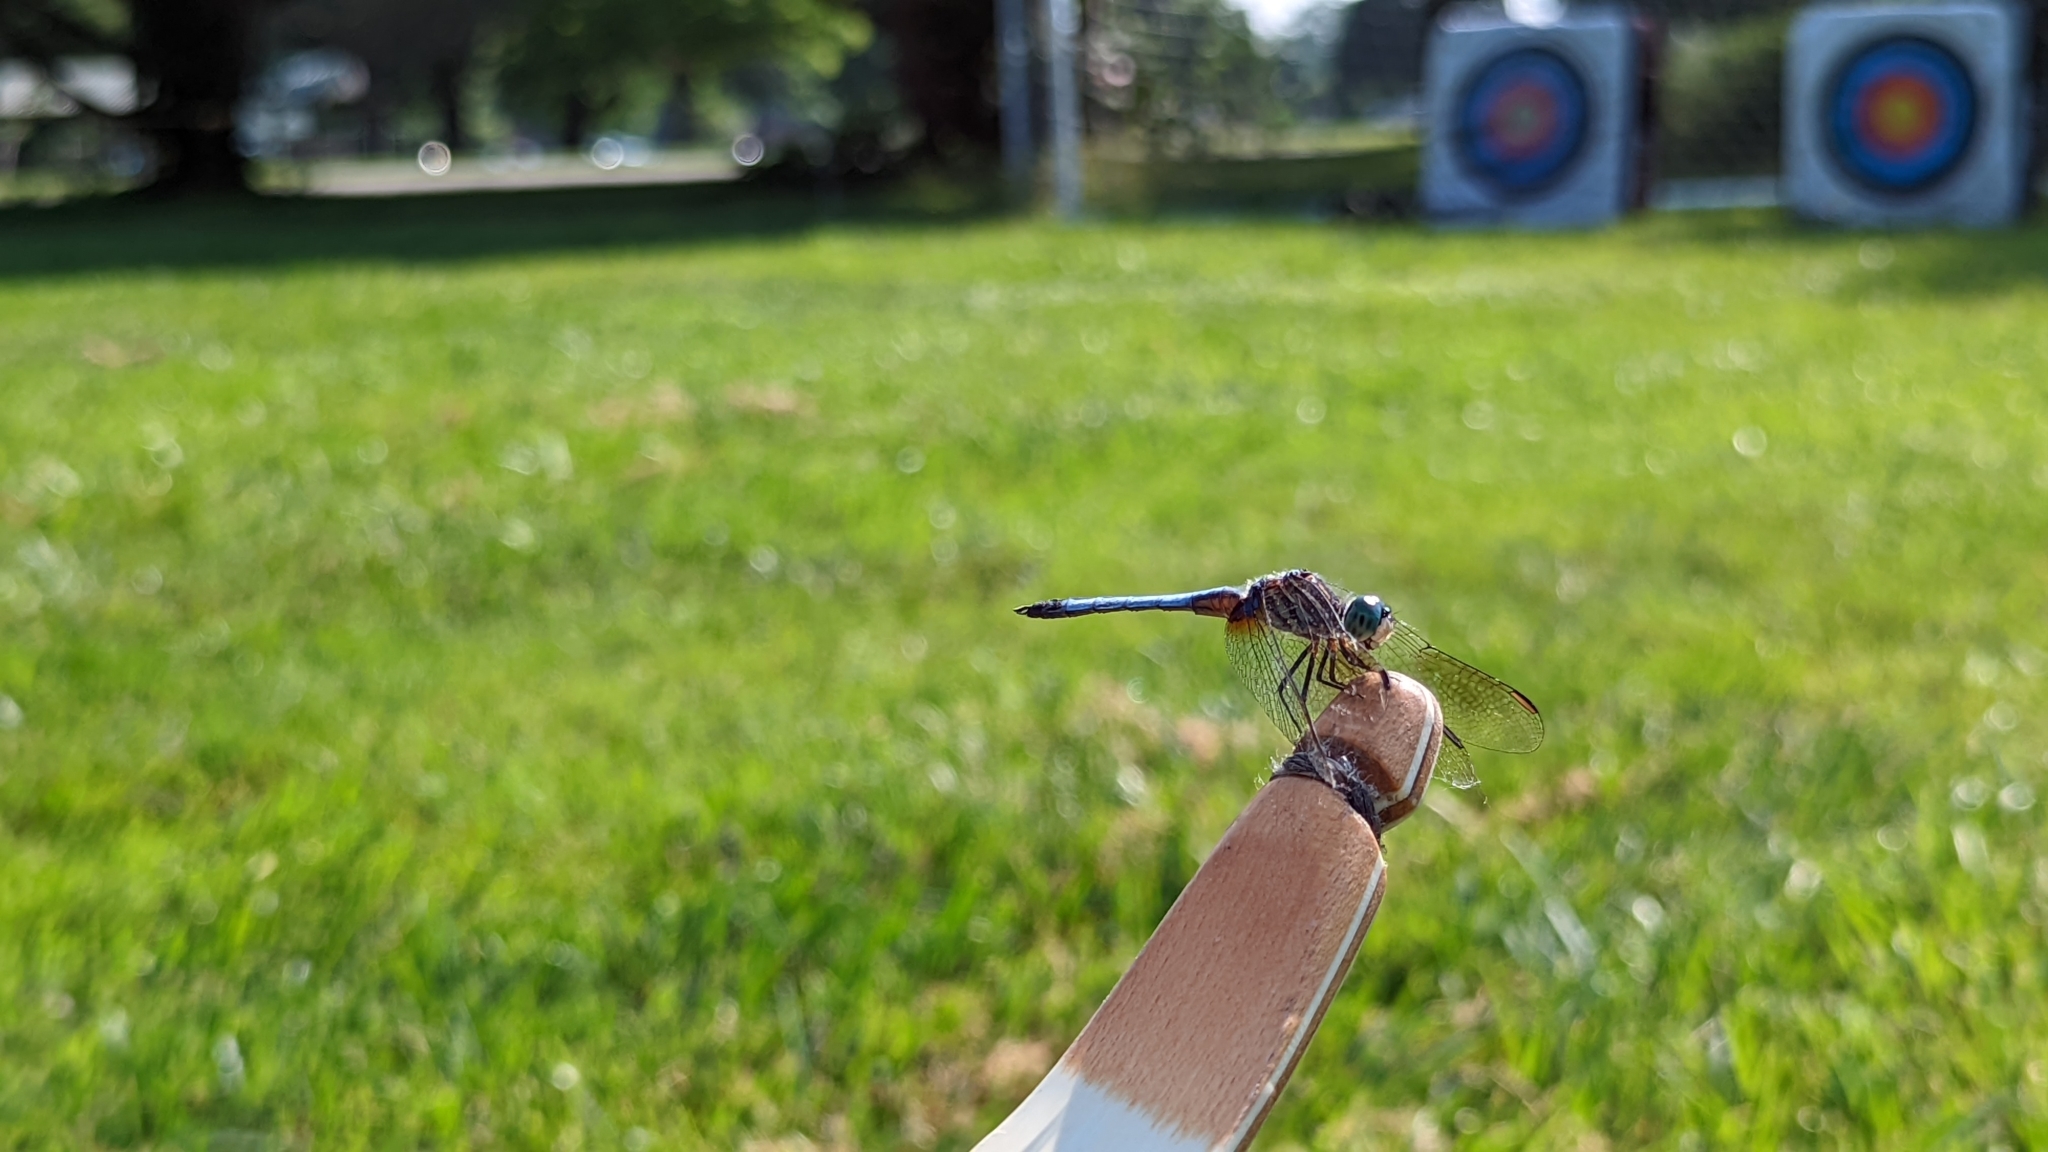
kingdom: Animalia
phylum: Arthropoda
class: Insecta
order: Odonata
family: Libellulidae
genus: Pachydiplax
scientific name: Pachydiplax longipennis
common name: Blue dasher
